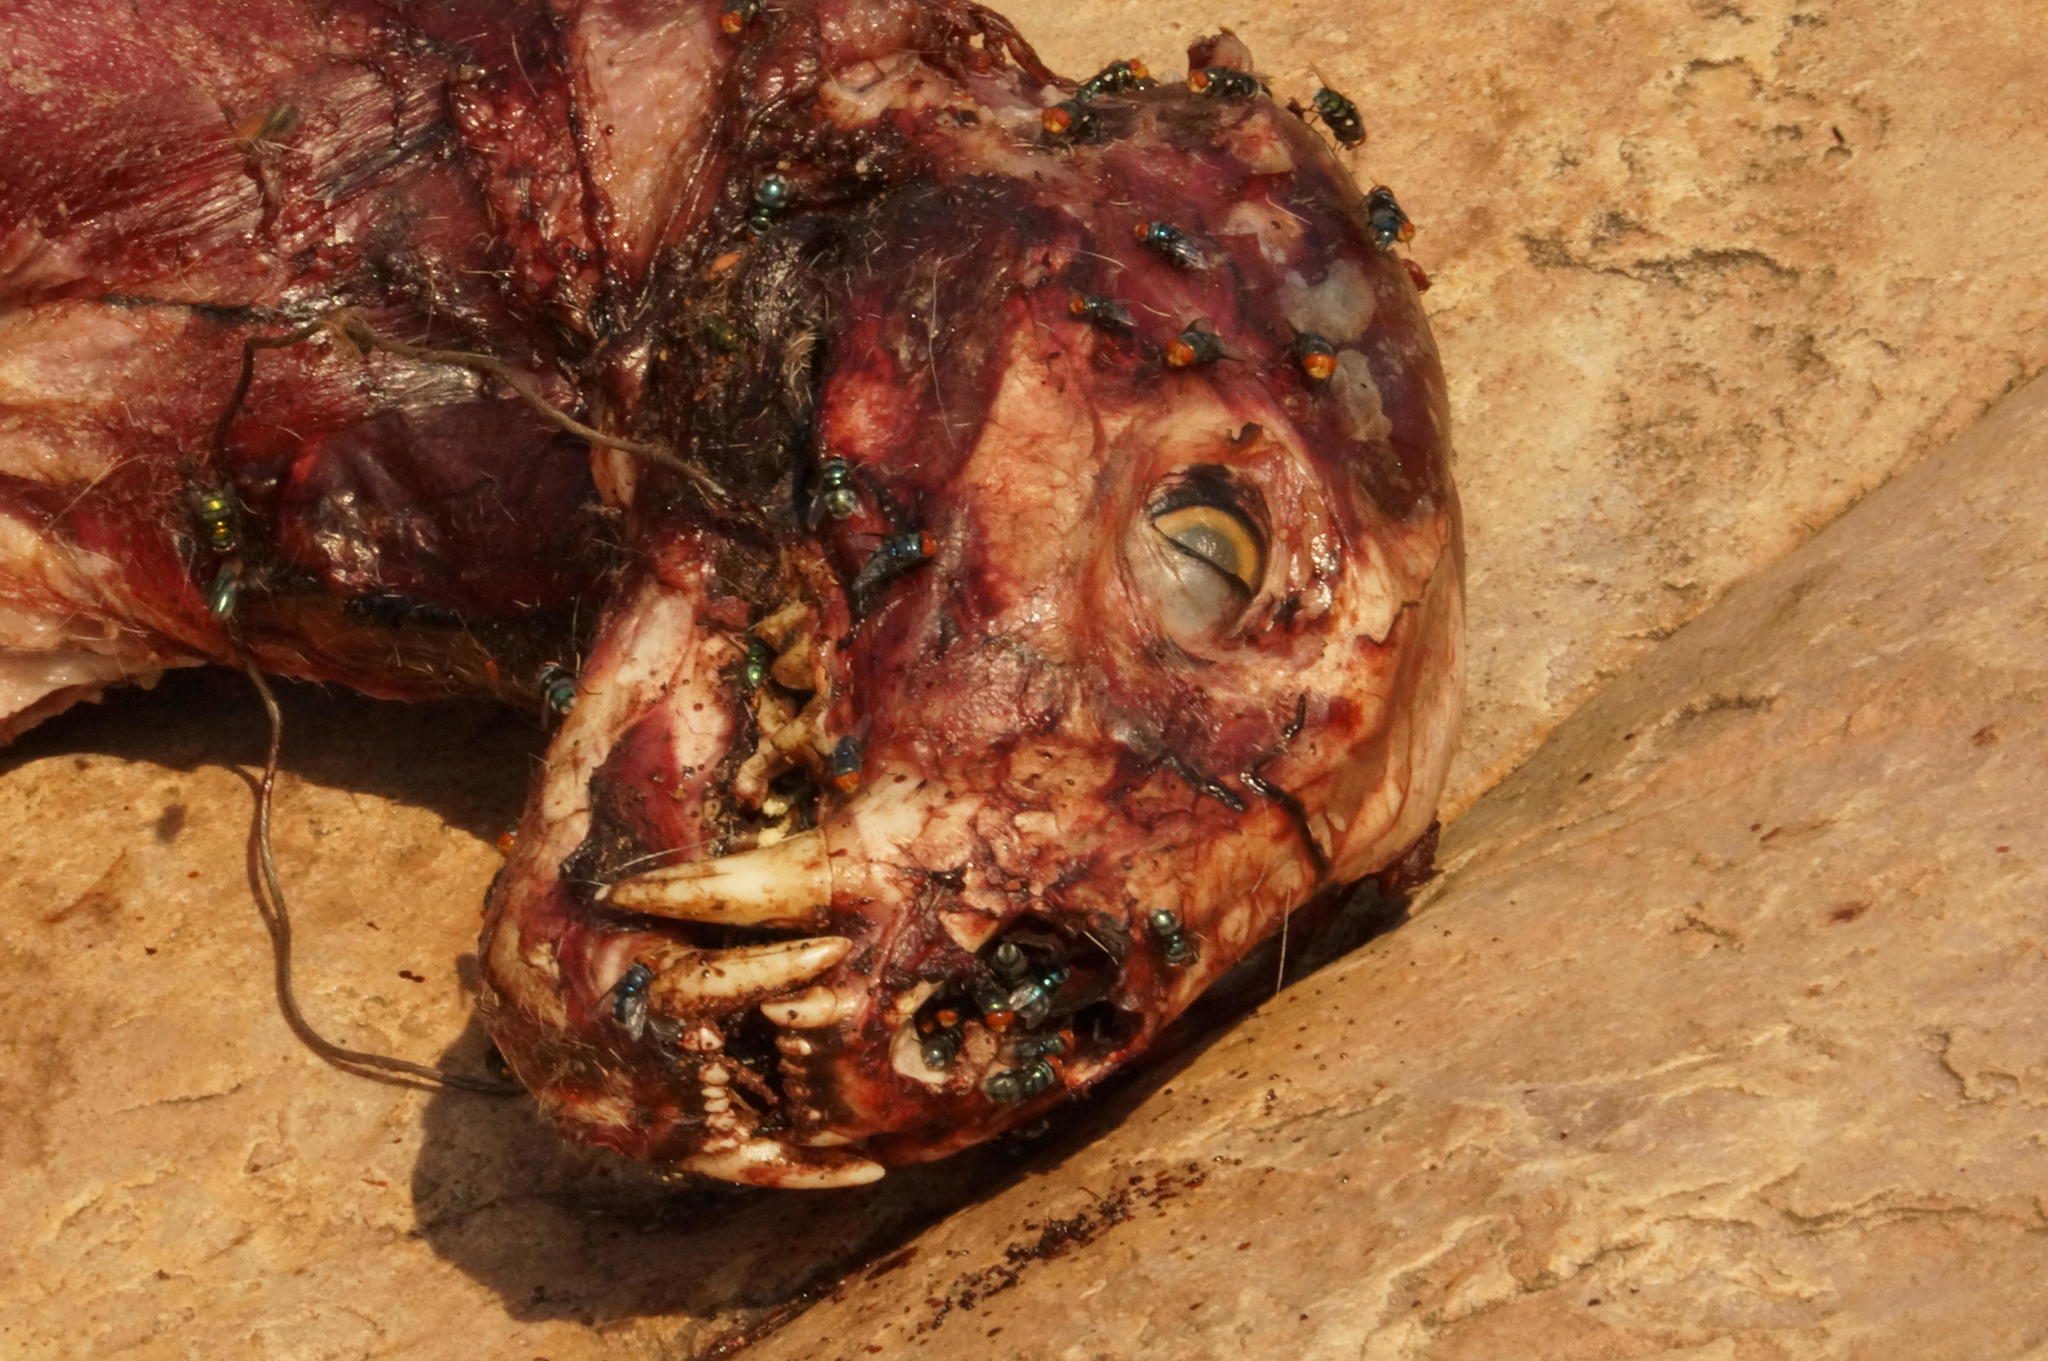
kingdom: Animalia
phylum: Chordata
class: Mammalia
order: Carnivora
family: Felidae
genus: Panthera
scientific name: Panthera pardus
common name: Leopard
